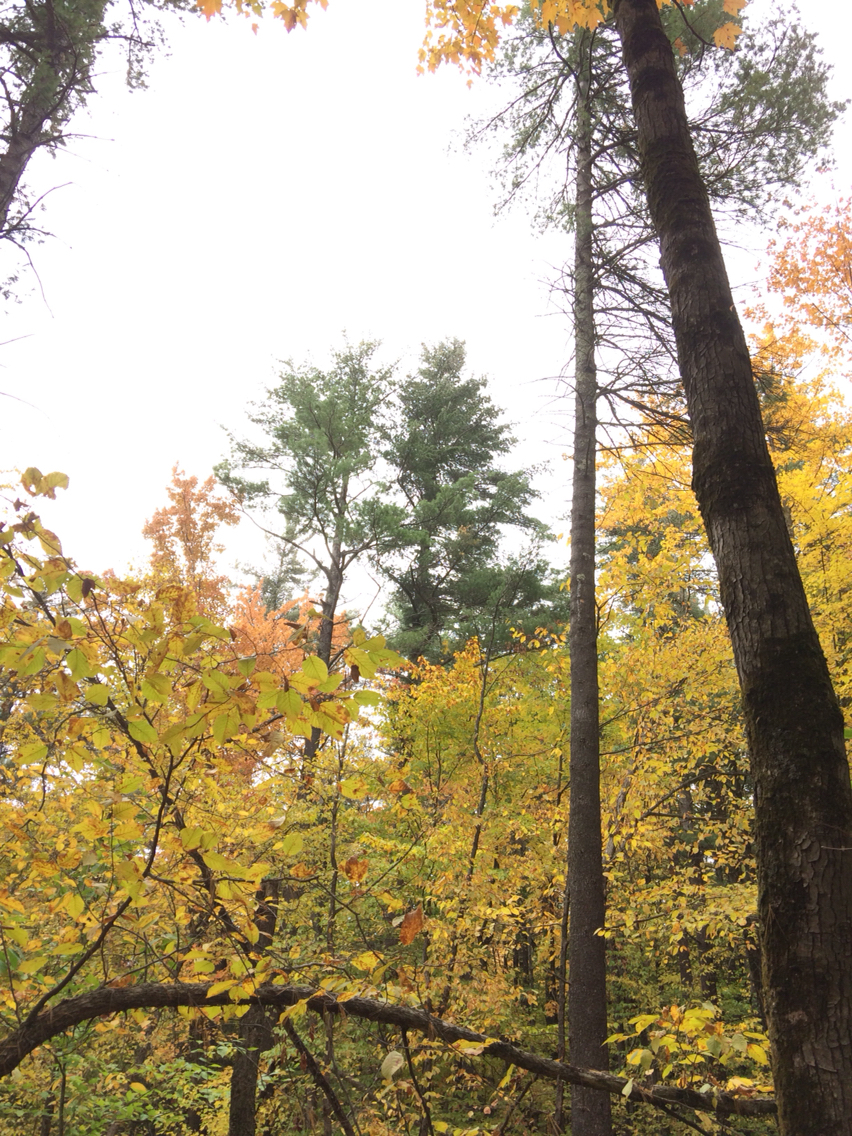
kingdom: Plantae
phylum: Tracheophyta
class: Pinopsida
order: Pinales
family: Pinaceae
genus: Pinus
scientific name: Pinus strobus
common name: Weymouth pine
